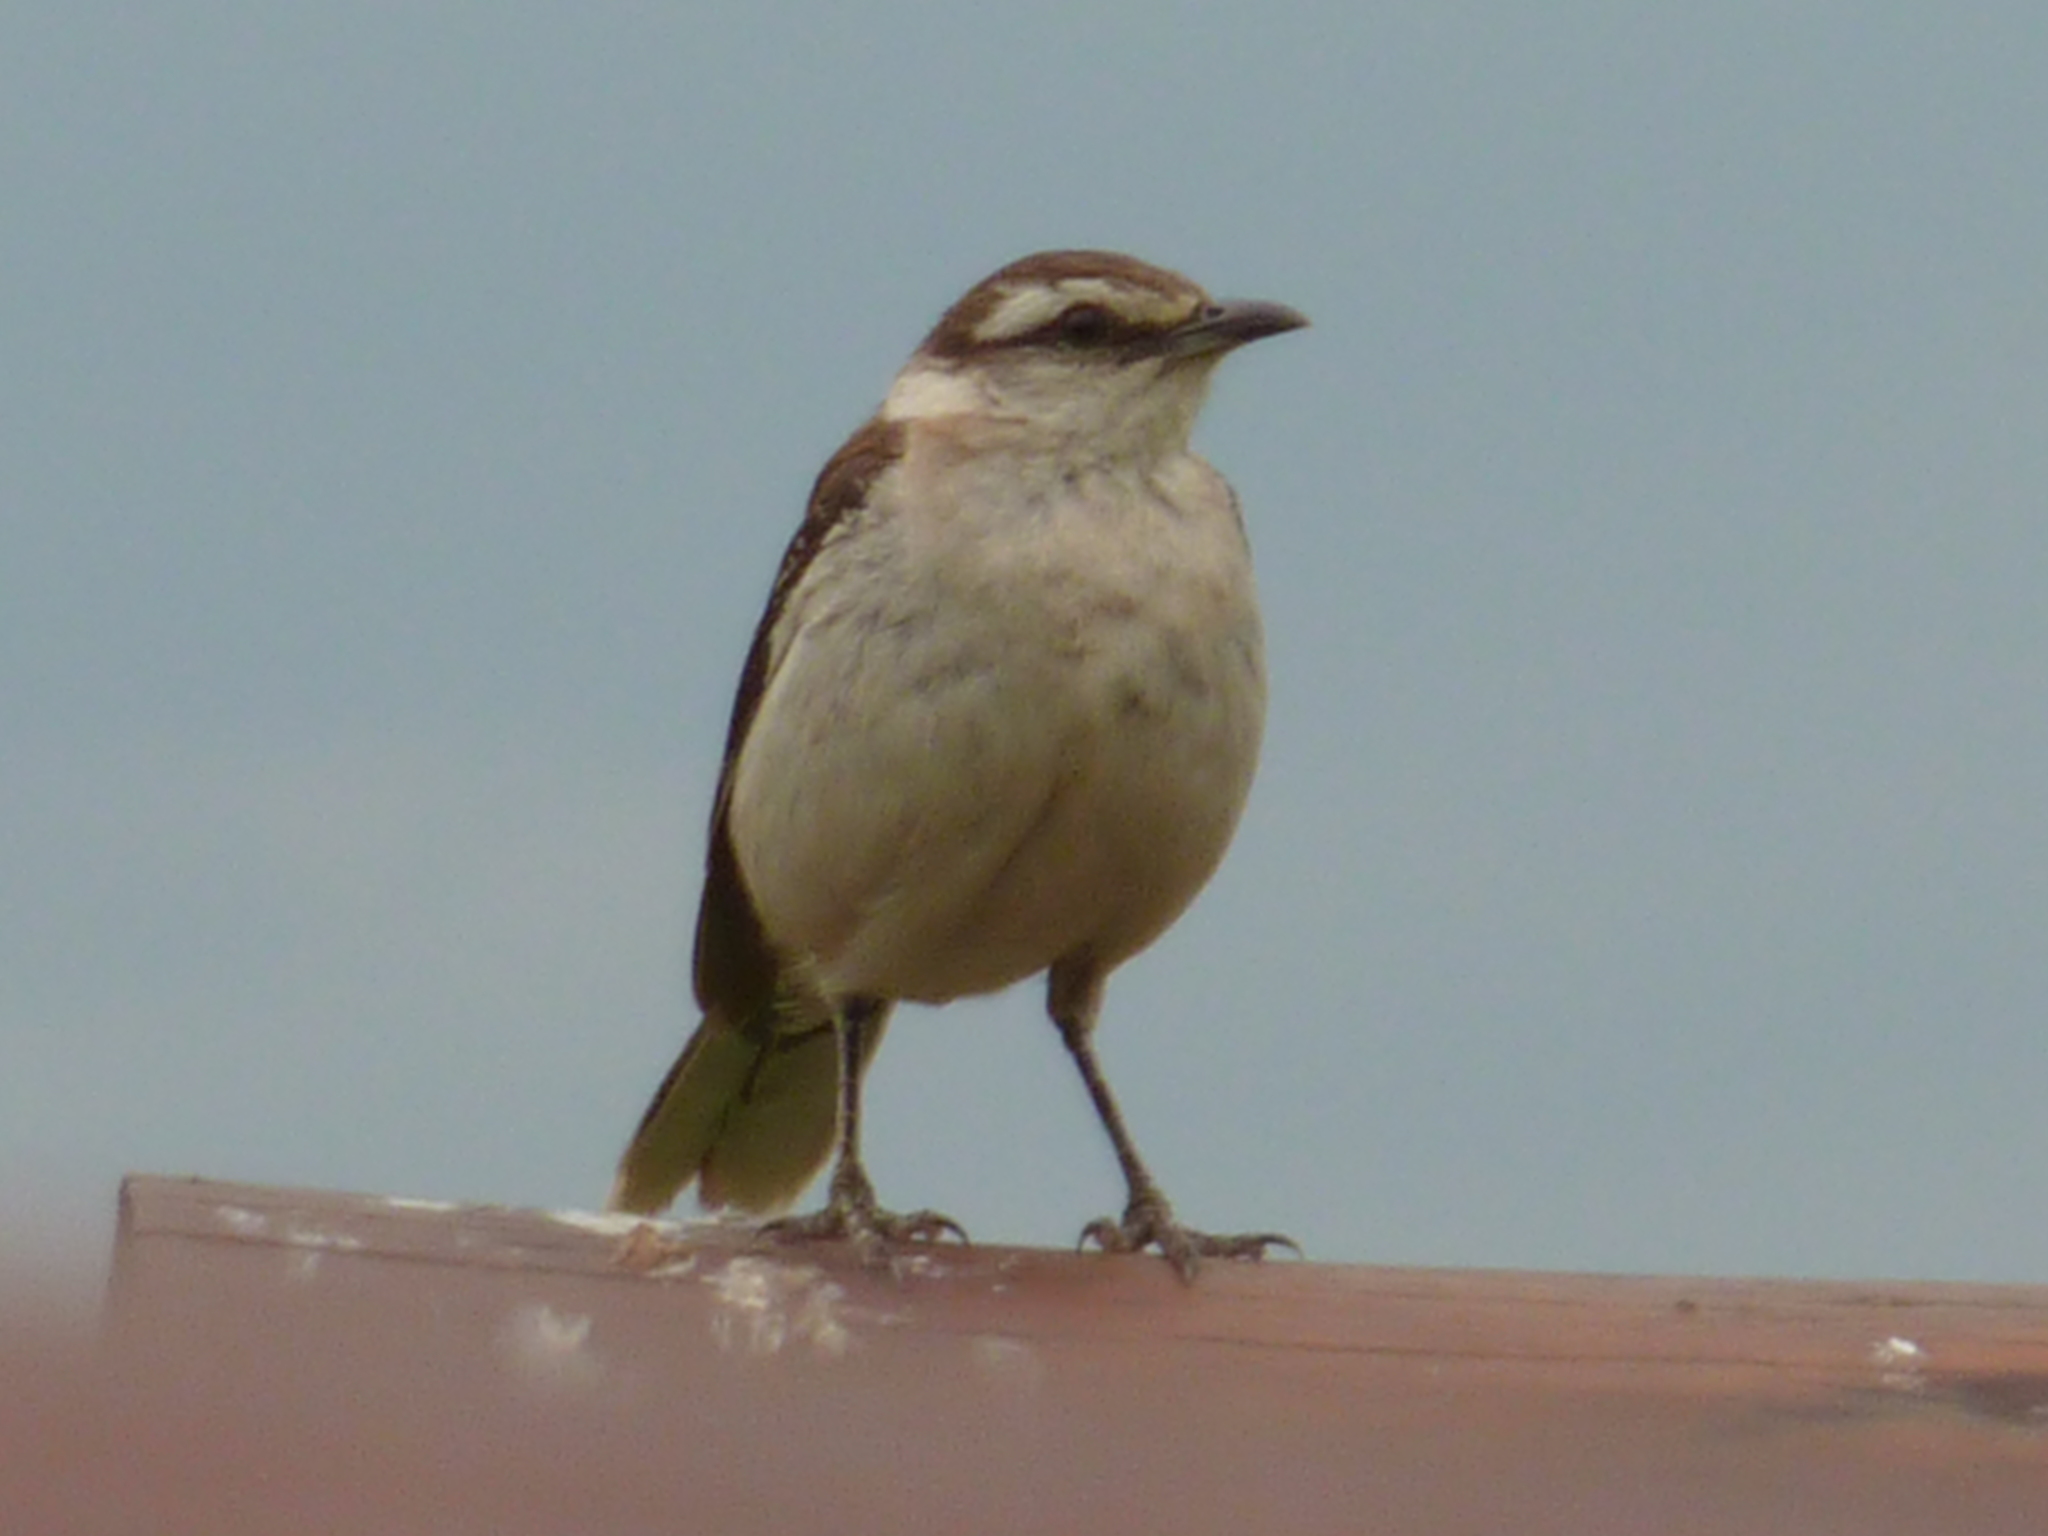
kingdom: Animalia
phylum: Chordata
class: Aves
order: Passeriformes
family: Mimidae
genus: Mimus
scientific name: Mimus saturninus
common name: Chalk-browed mockingbird
